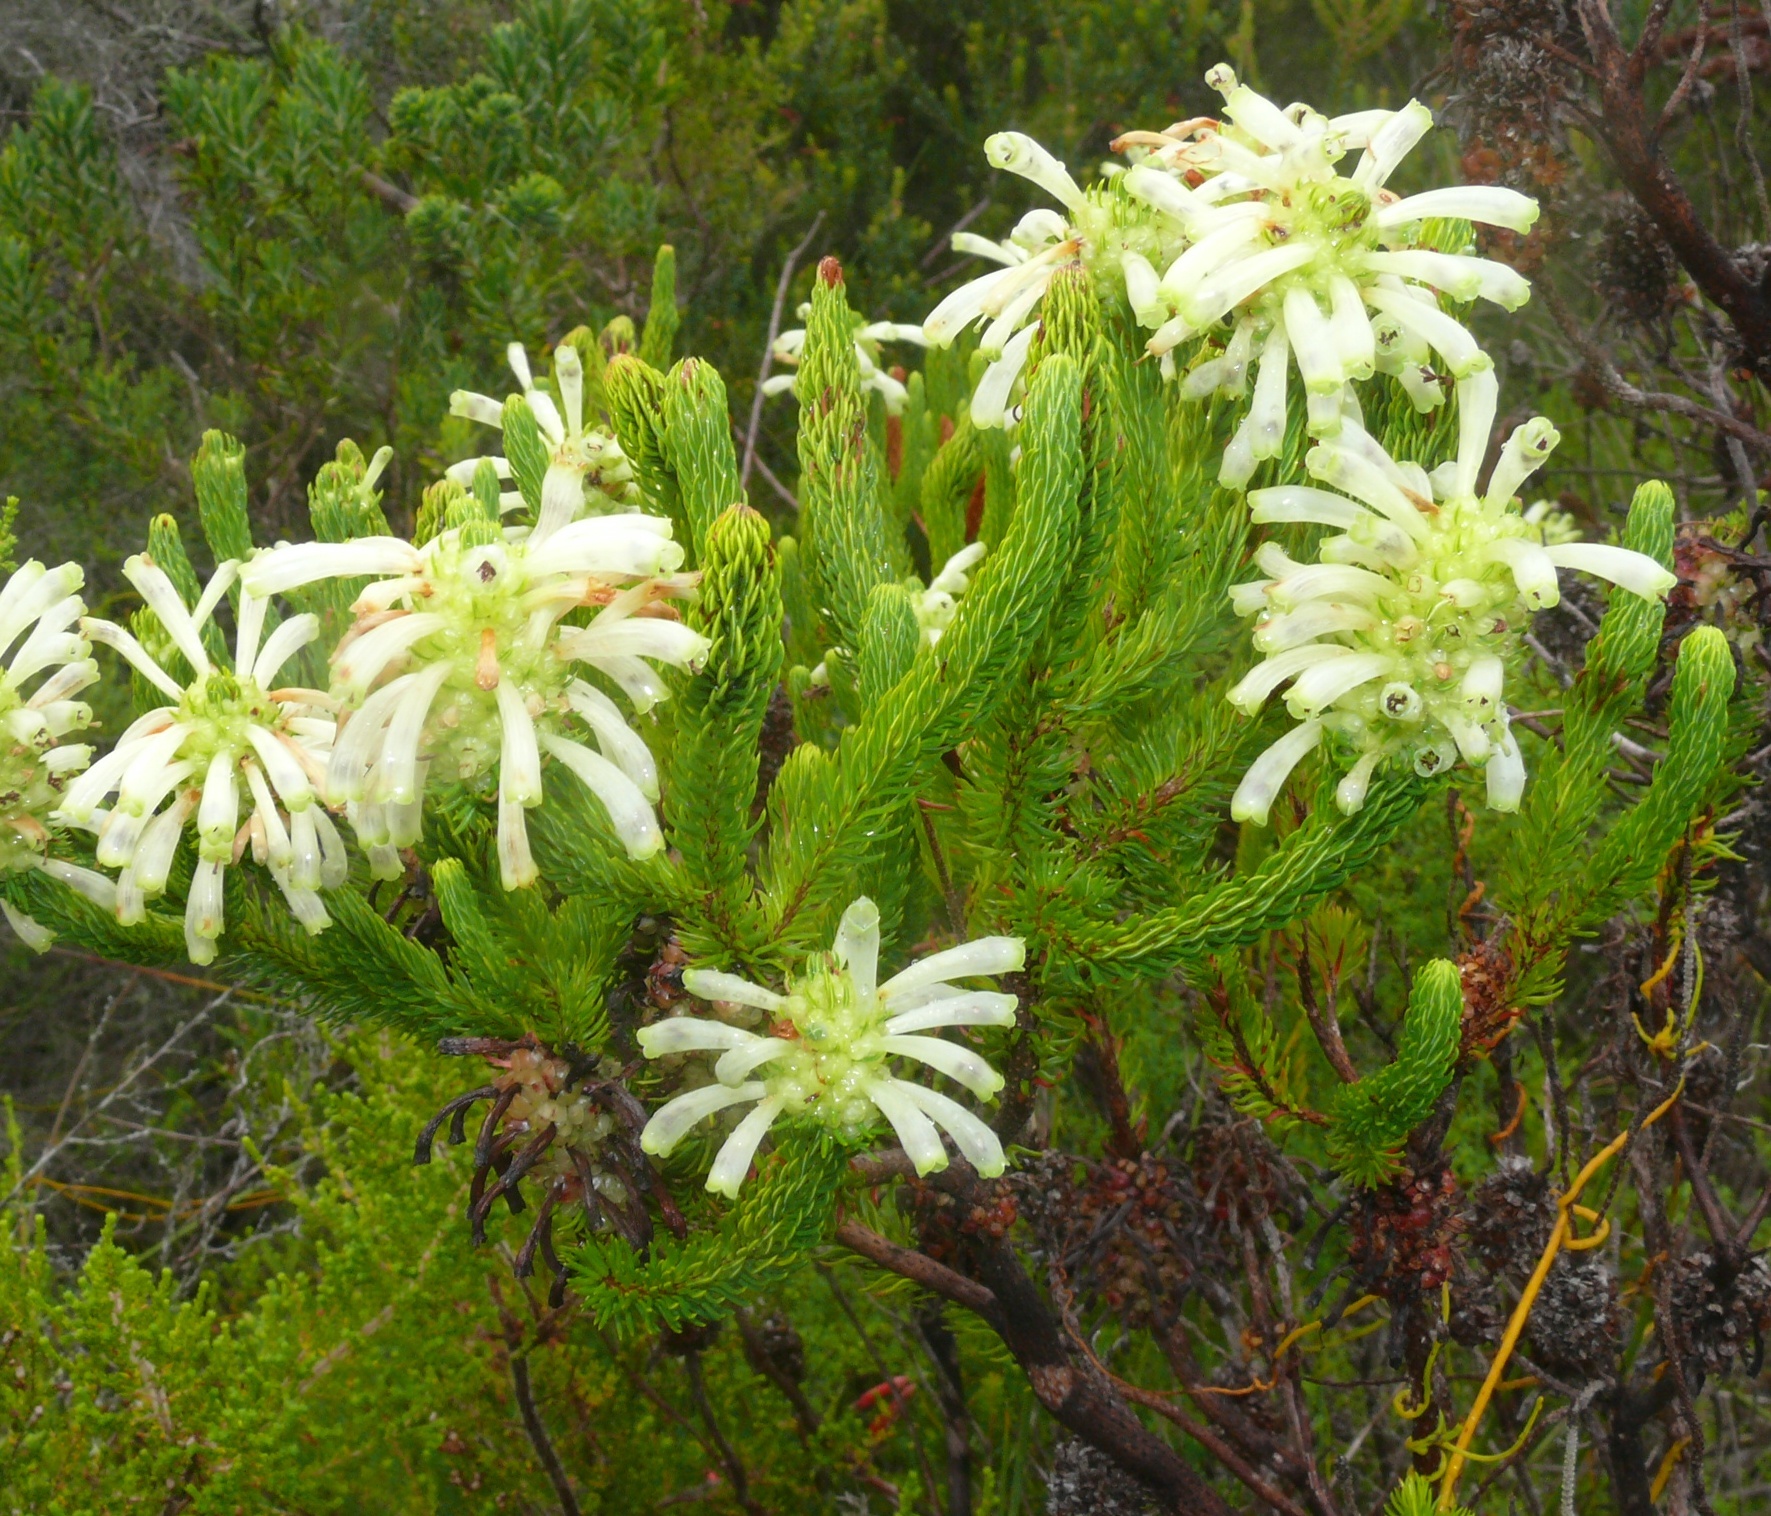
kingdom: Plantae
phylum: Tracheophyta
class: Magnoliopsida
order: Ericales
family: Ericaceae
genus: Erica
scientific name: Erica sessiliflora
